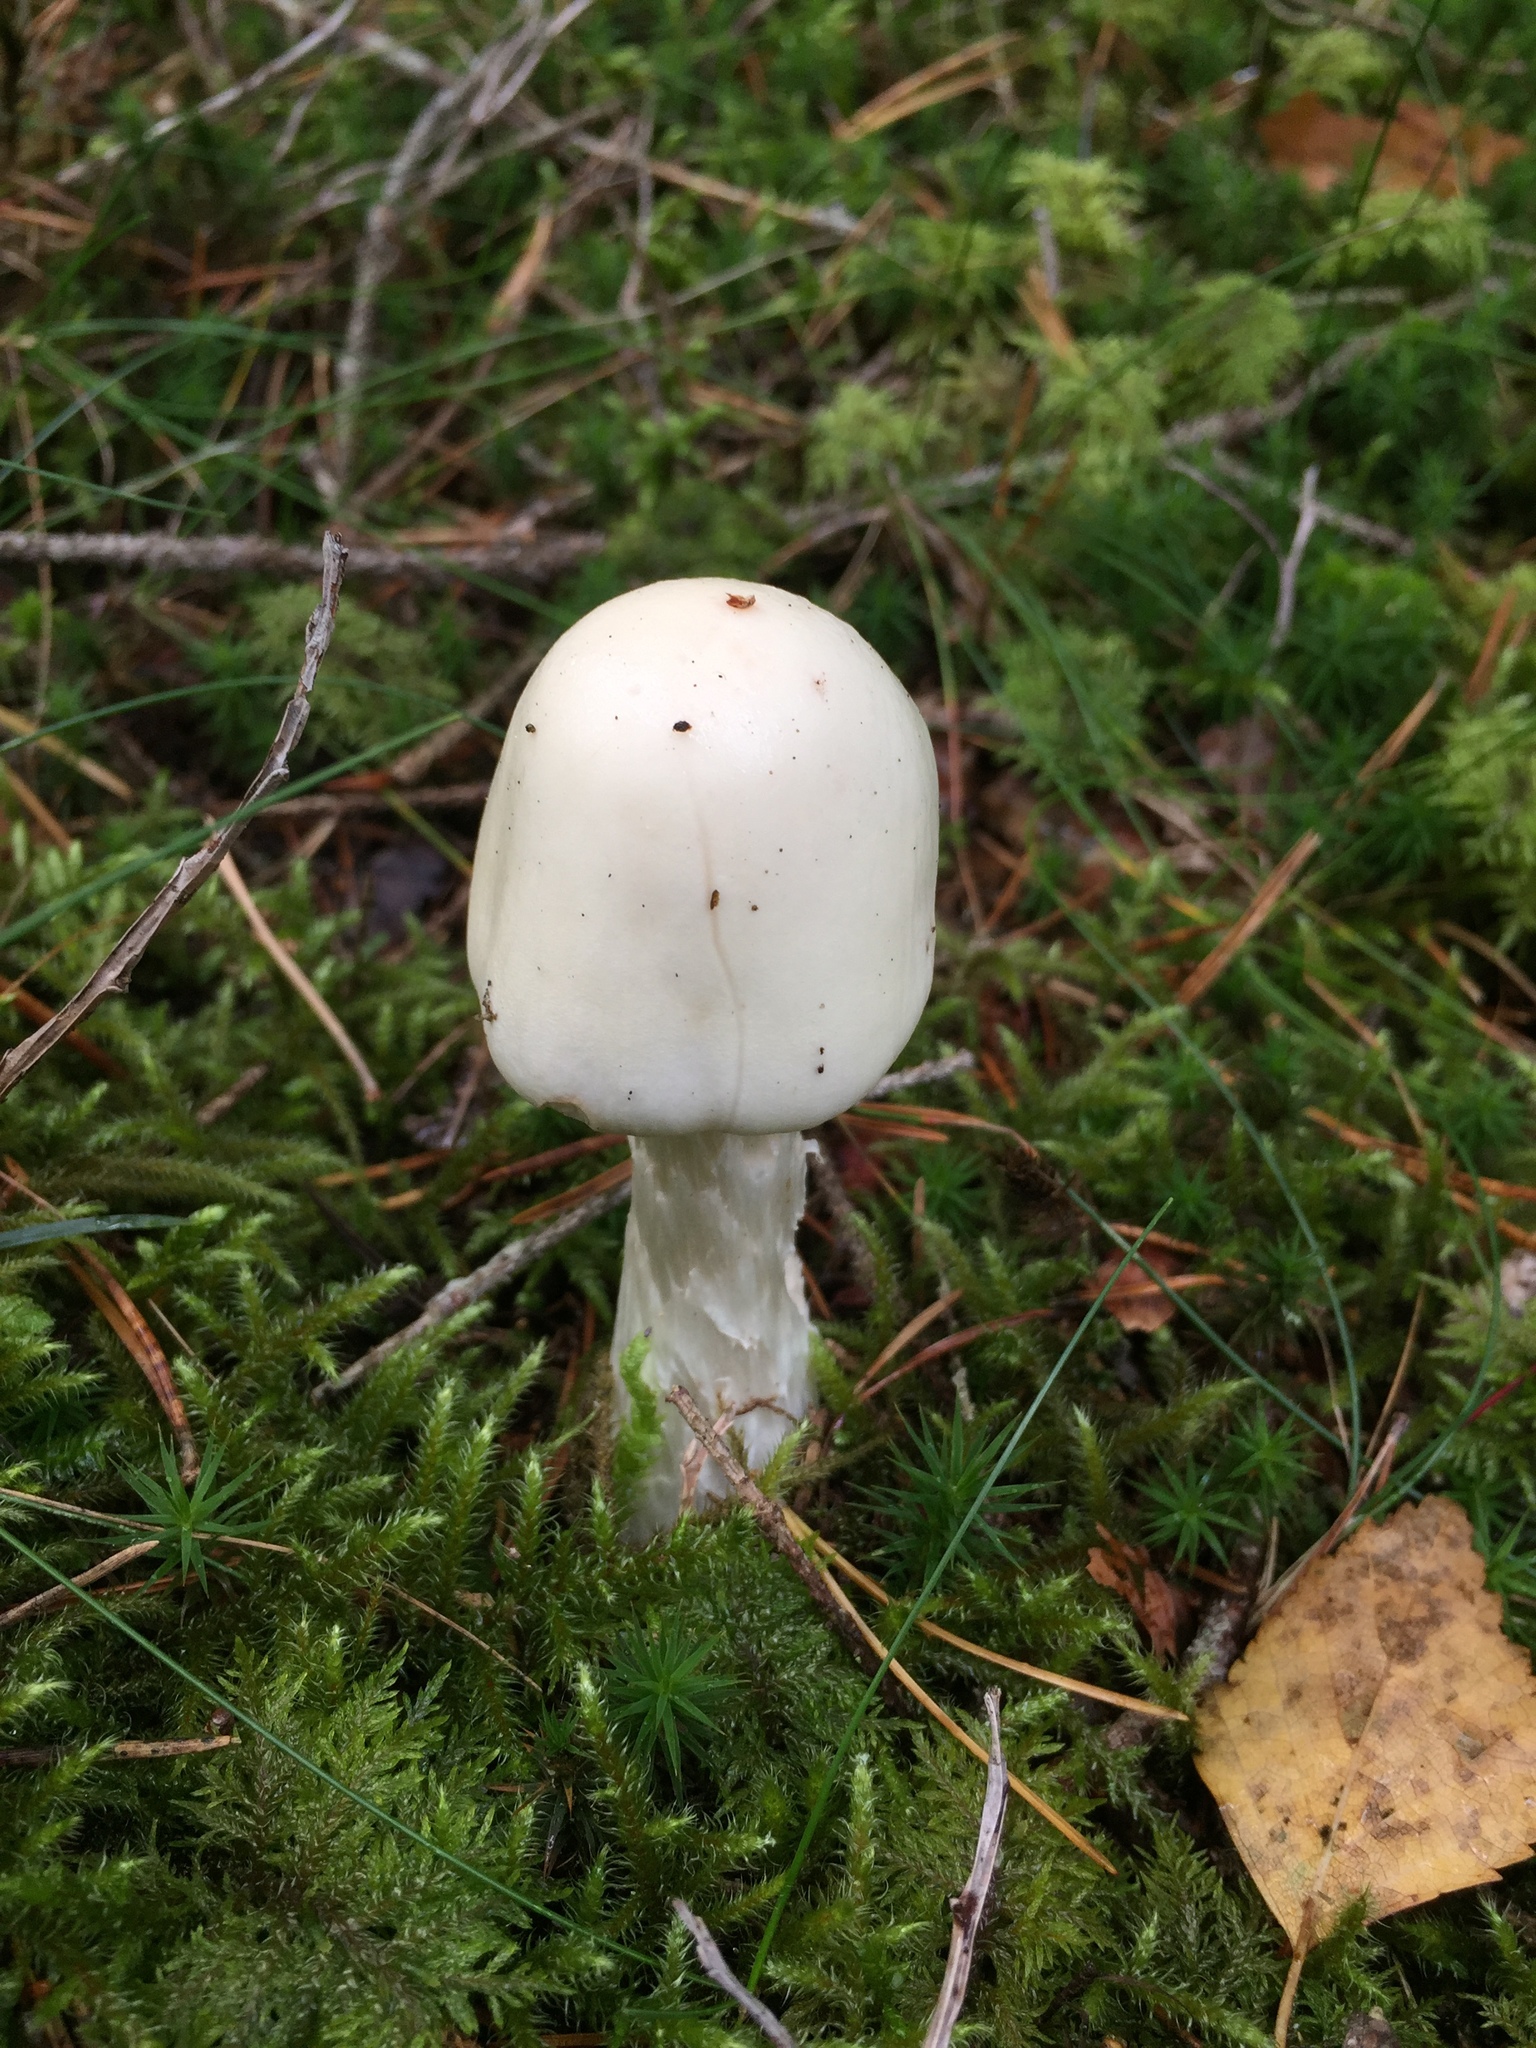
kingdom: Fungi
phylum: Basidiomycota
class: Agaricomycetes
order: Agaricales
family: Amanitaceae
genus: Amanita
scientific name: Amanita virosa
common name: Destroying angel
